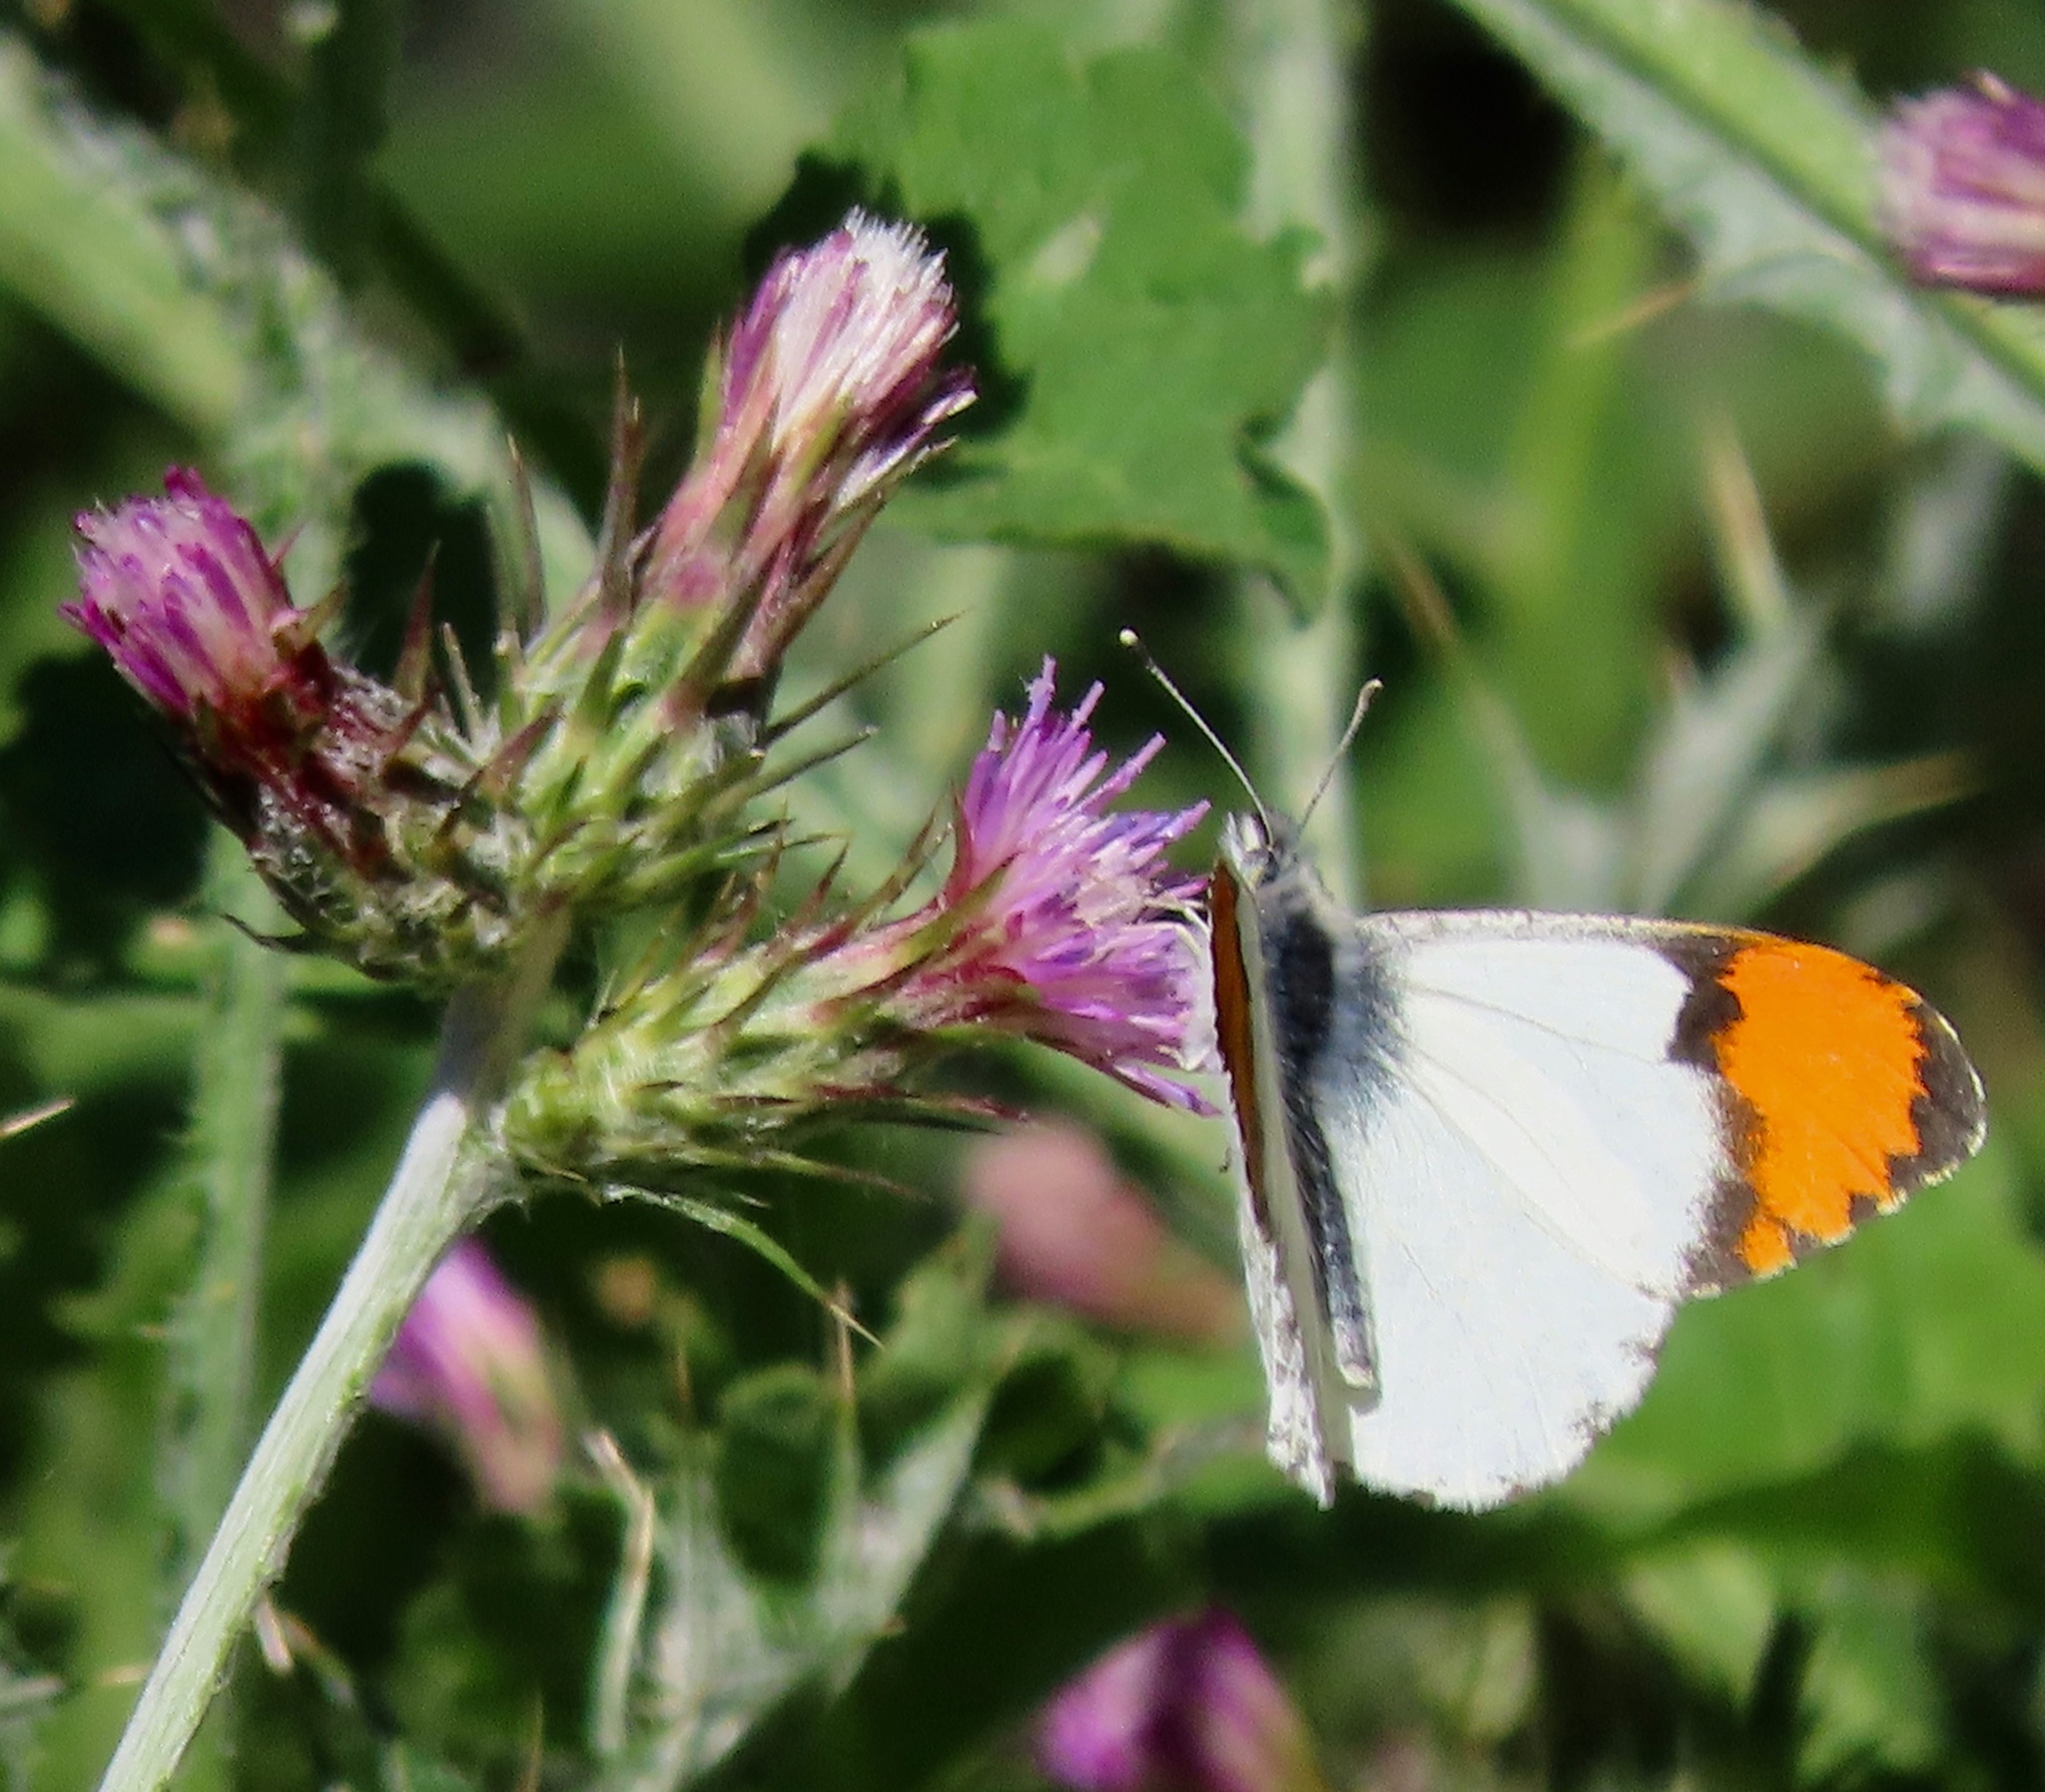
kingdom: Animalia
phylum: Arthropoda
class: Insecta
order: Lepidoptera
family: Pieridae
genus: Anthocharis
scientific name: Anthocharis sara
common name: Sara's orangetip
